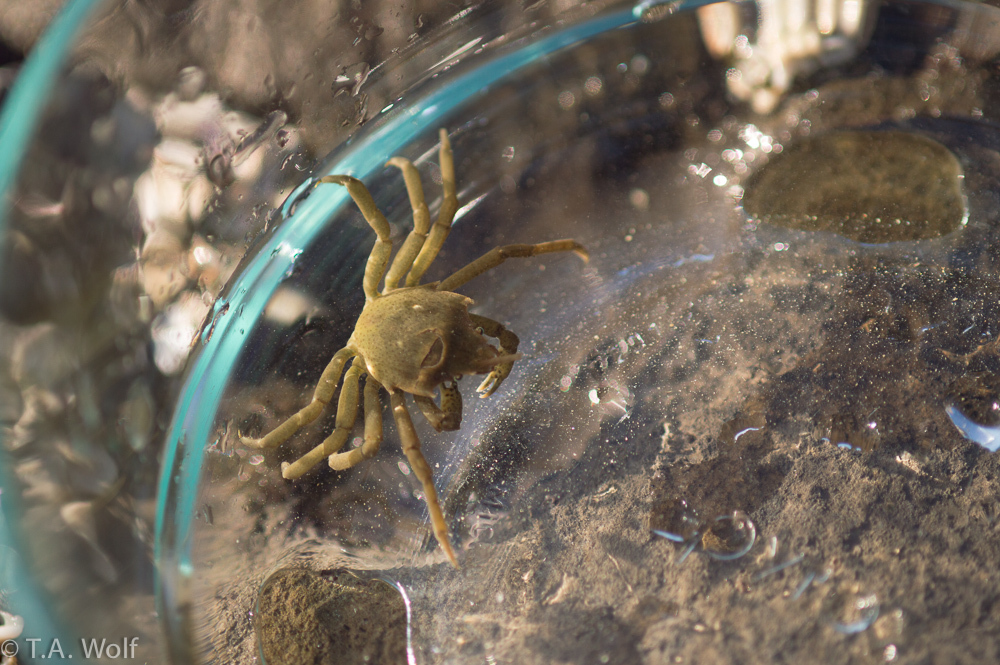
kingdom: Animalia
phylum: Arthropoda
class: Malacostraca
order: Decapoda
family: Epialtidae
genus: Pugettia
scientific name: Pugettia producta
